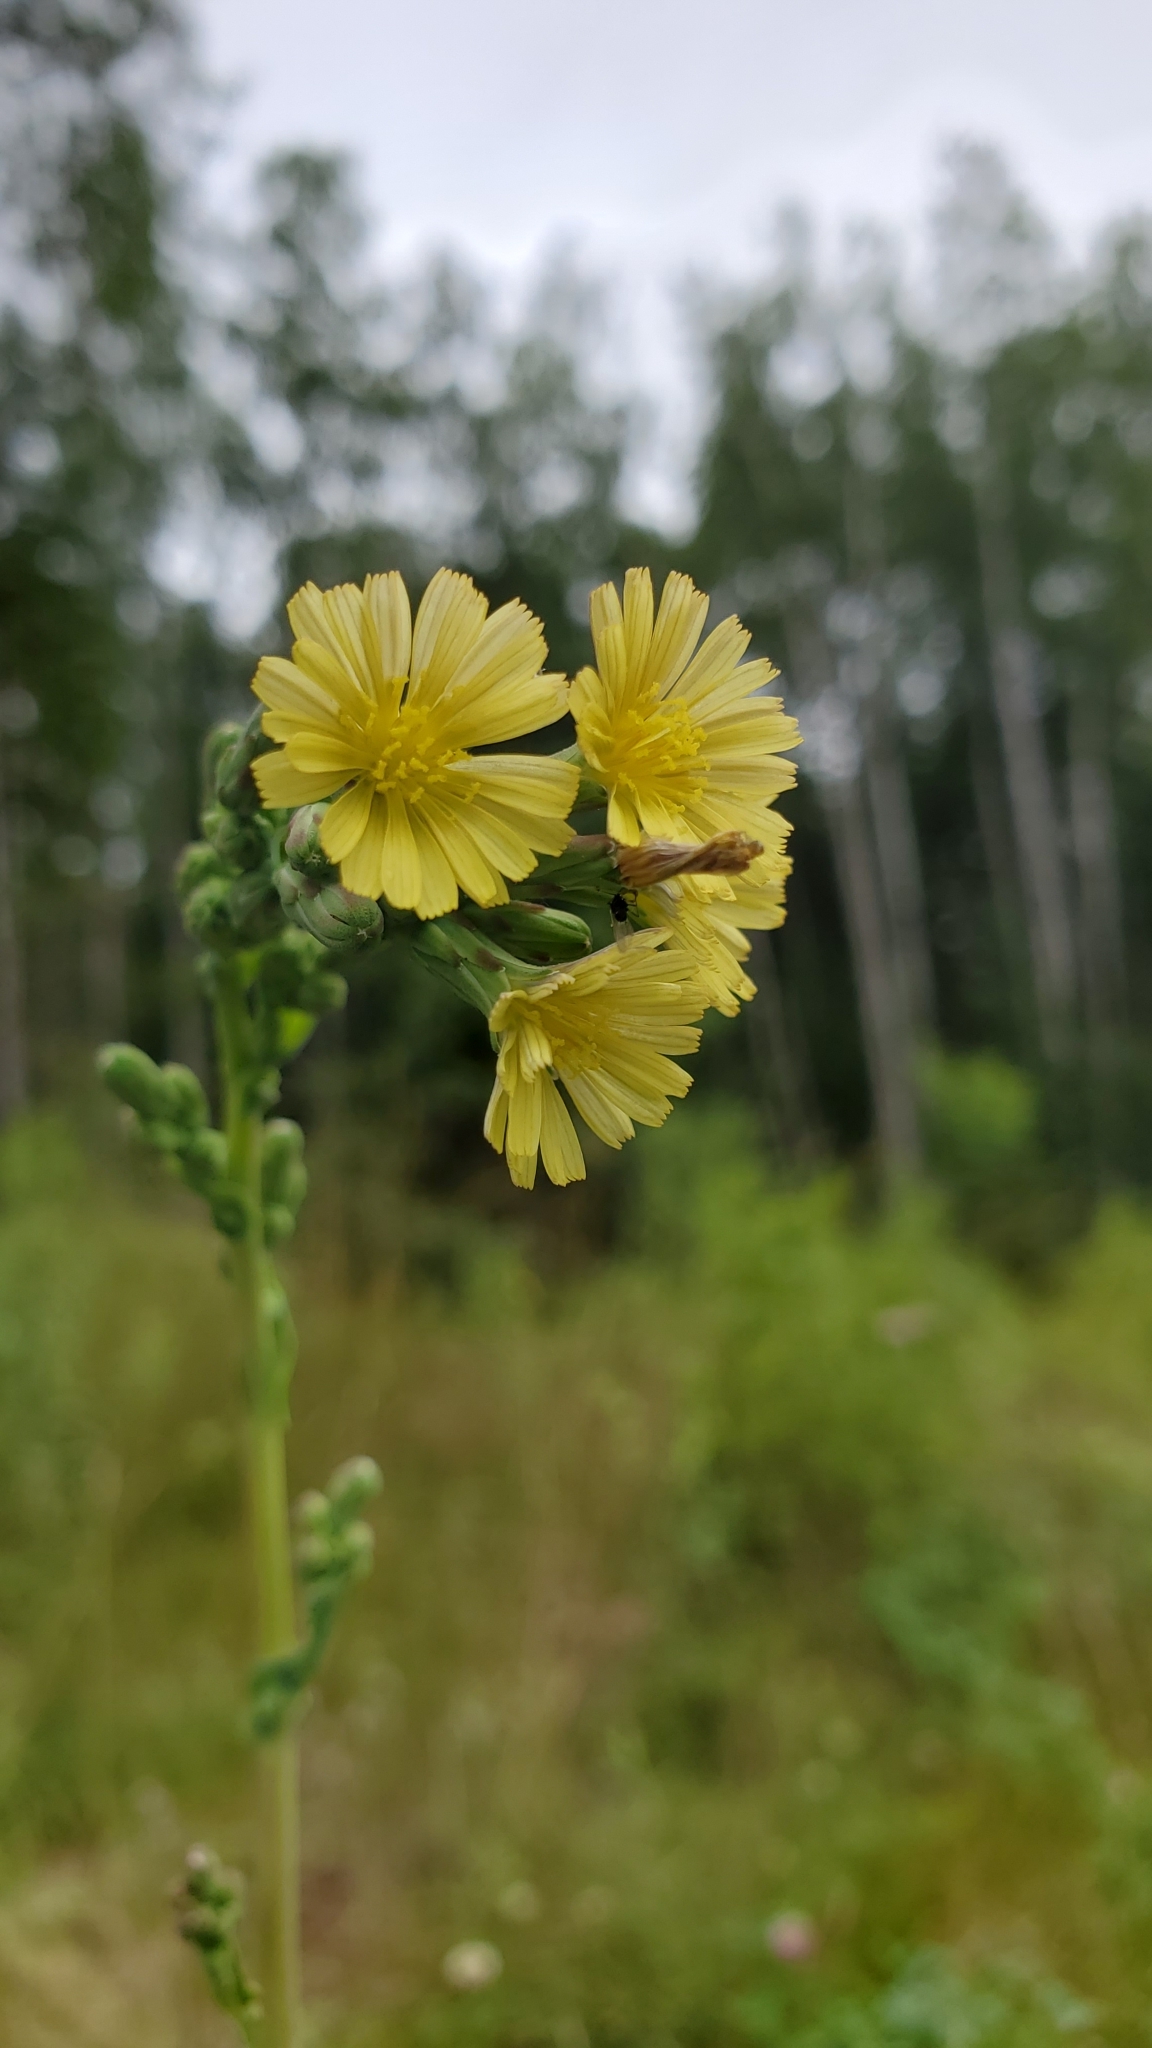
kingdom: Plantae
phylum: Tracheophyta
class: Magnoliopsida
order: Asterales
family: Asteraceae
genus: Lactuca
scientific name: Lactuca canadensis
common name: Canada lettuce
